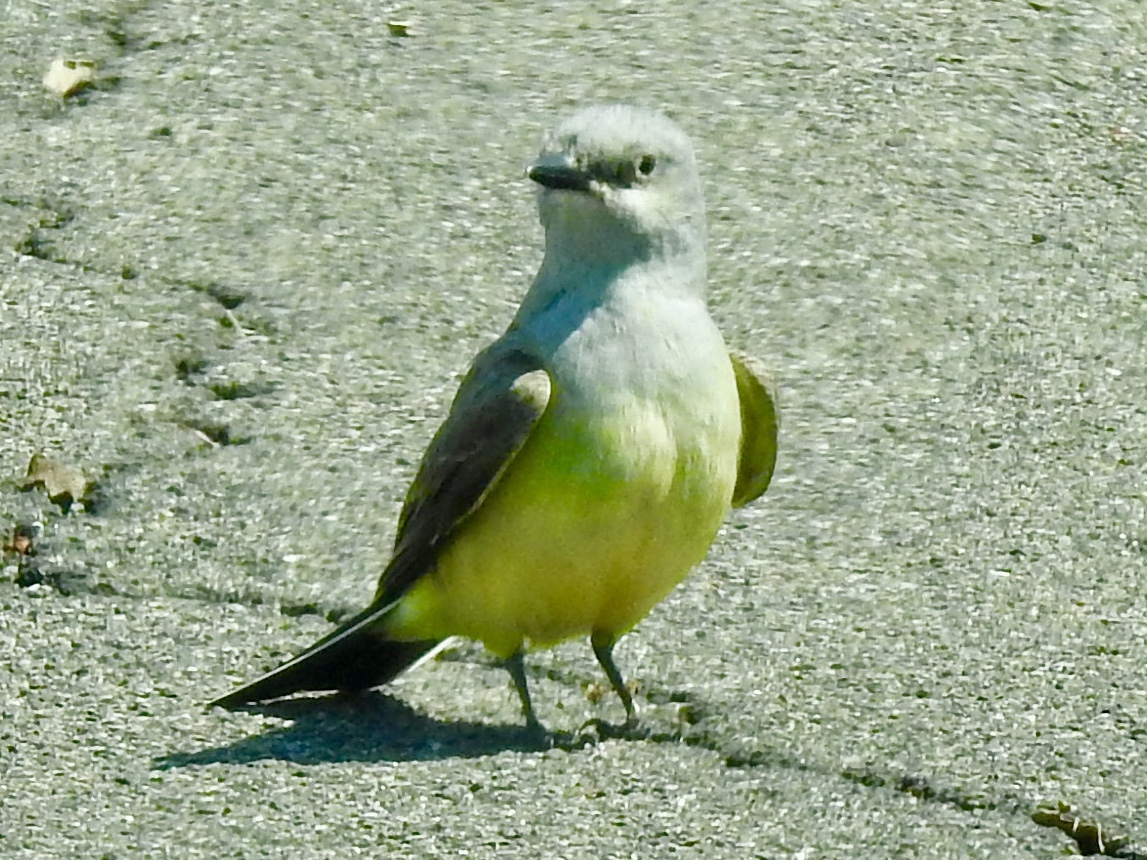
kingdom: Animalia
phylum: Chordata
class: Aves
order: Passeriformes
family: Tyrannidae
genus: Tyrannus
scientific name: Tyrannus verticalis
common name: Western kingbird
